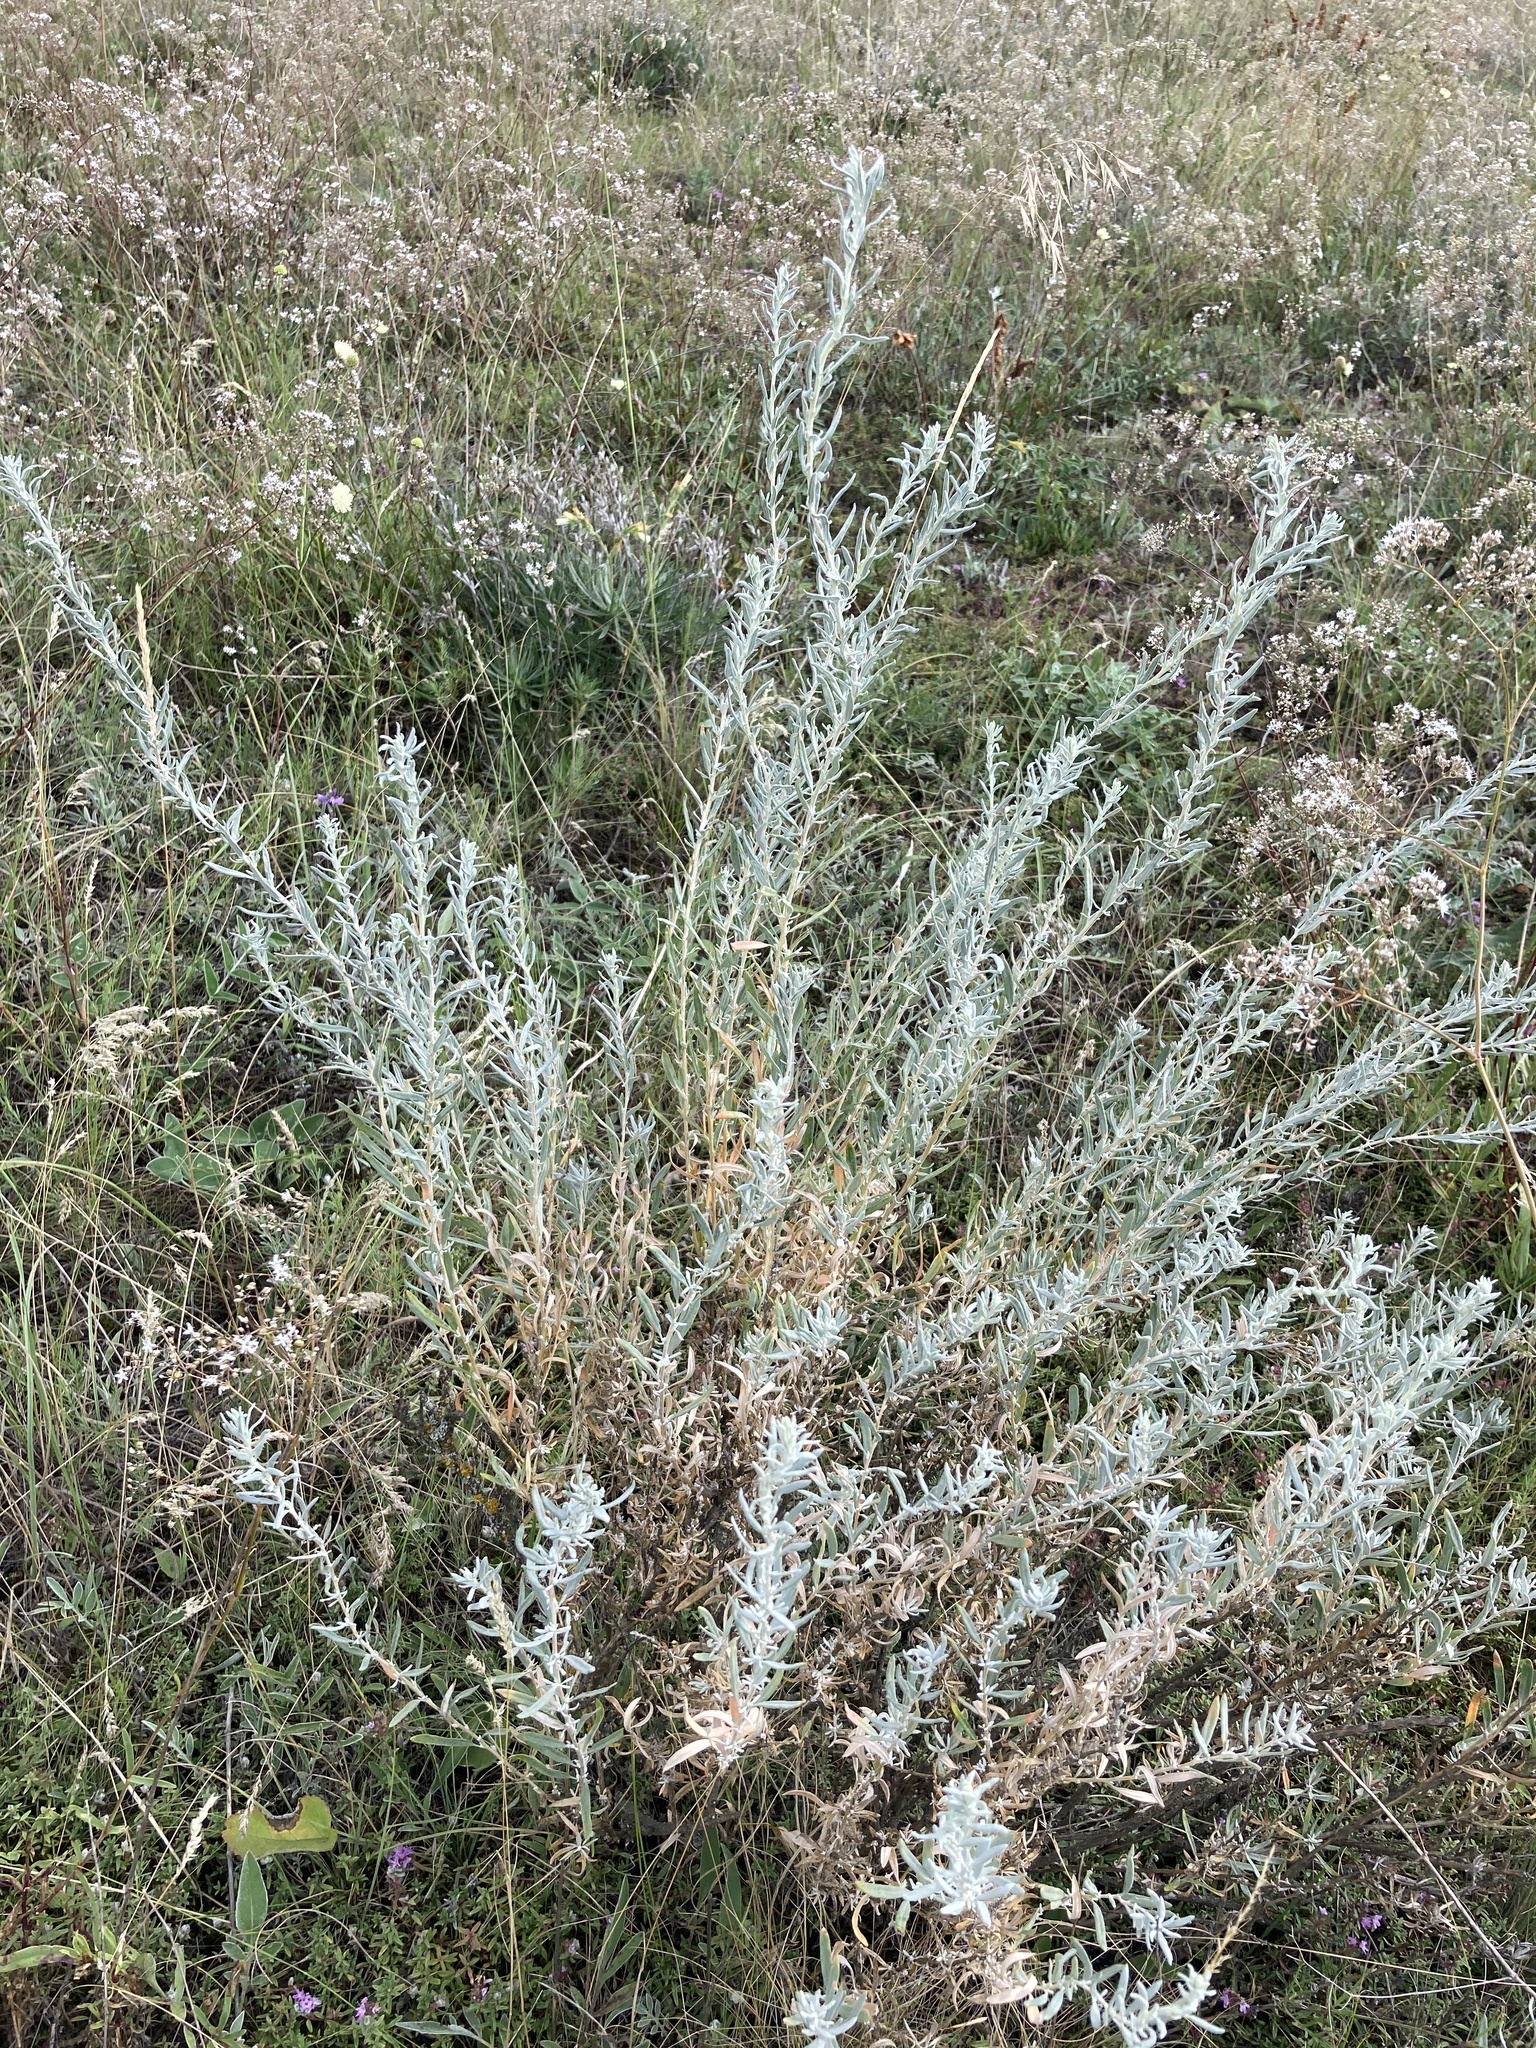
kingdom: Plantae
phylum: Tracheophyta
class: Magnoliopsida
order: Caryophyllales
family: Amaranthaceae
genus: Krascheninnikovia
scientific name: Krascheninnikovia ceratoides
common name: Pamirian winterfat
